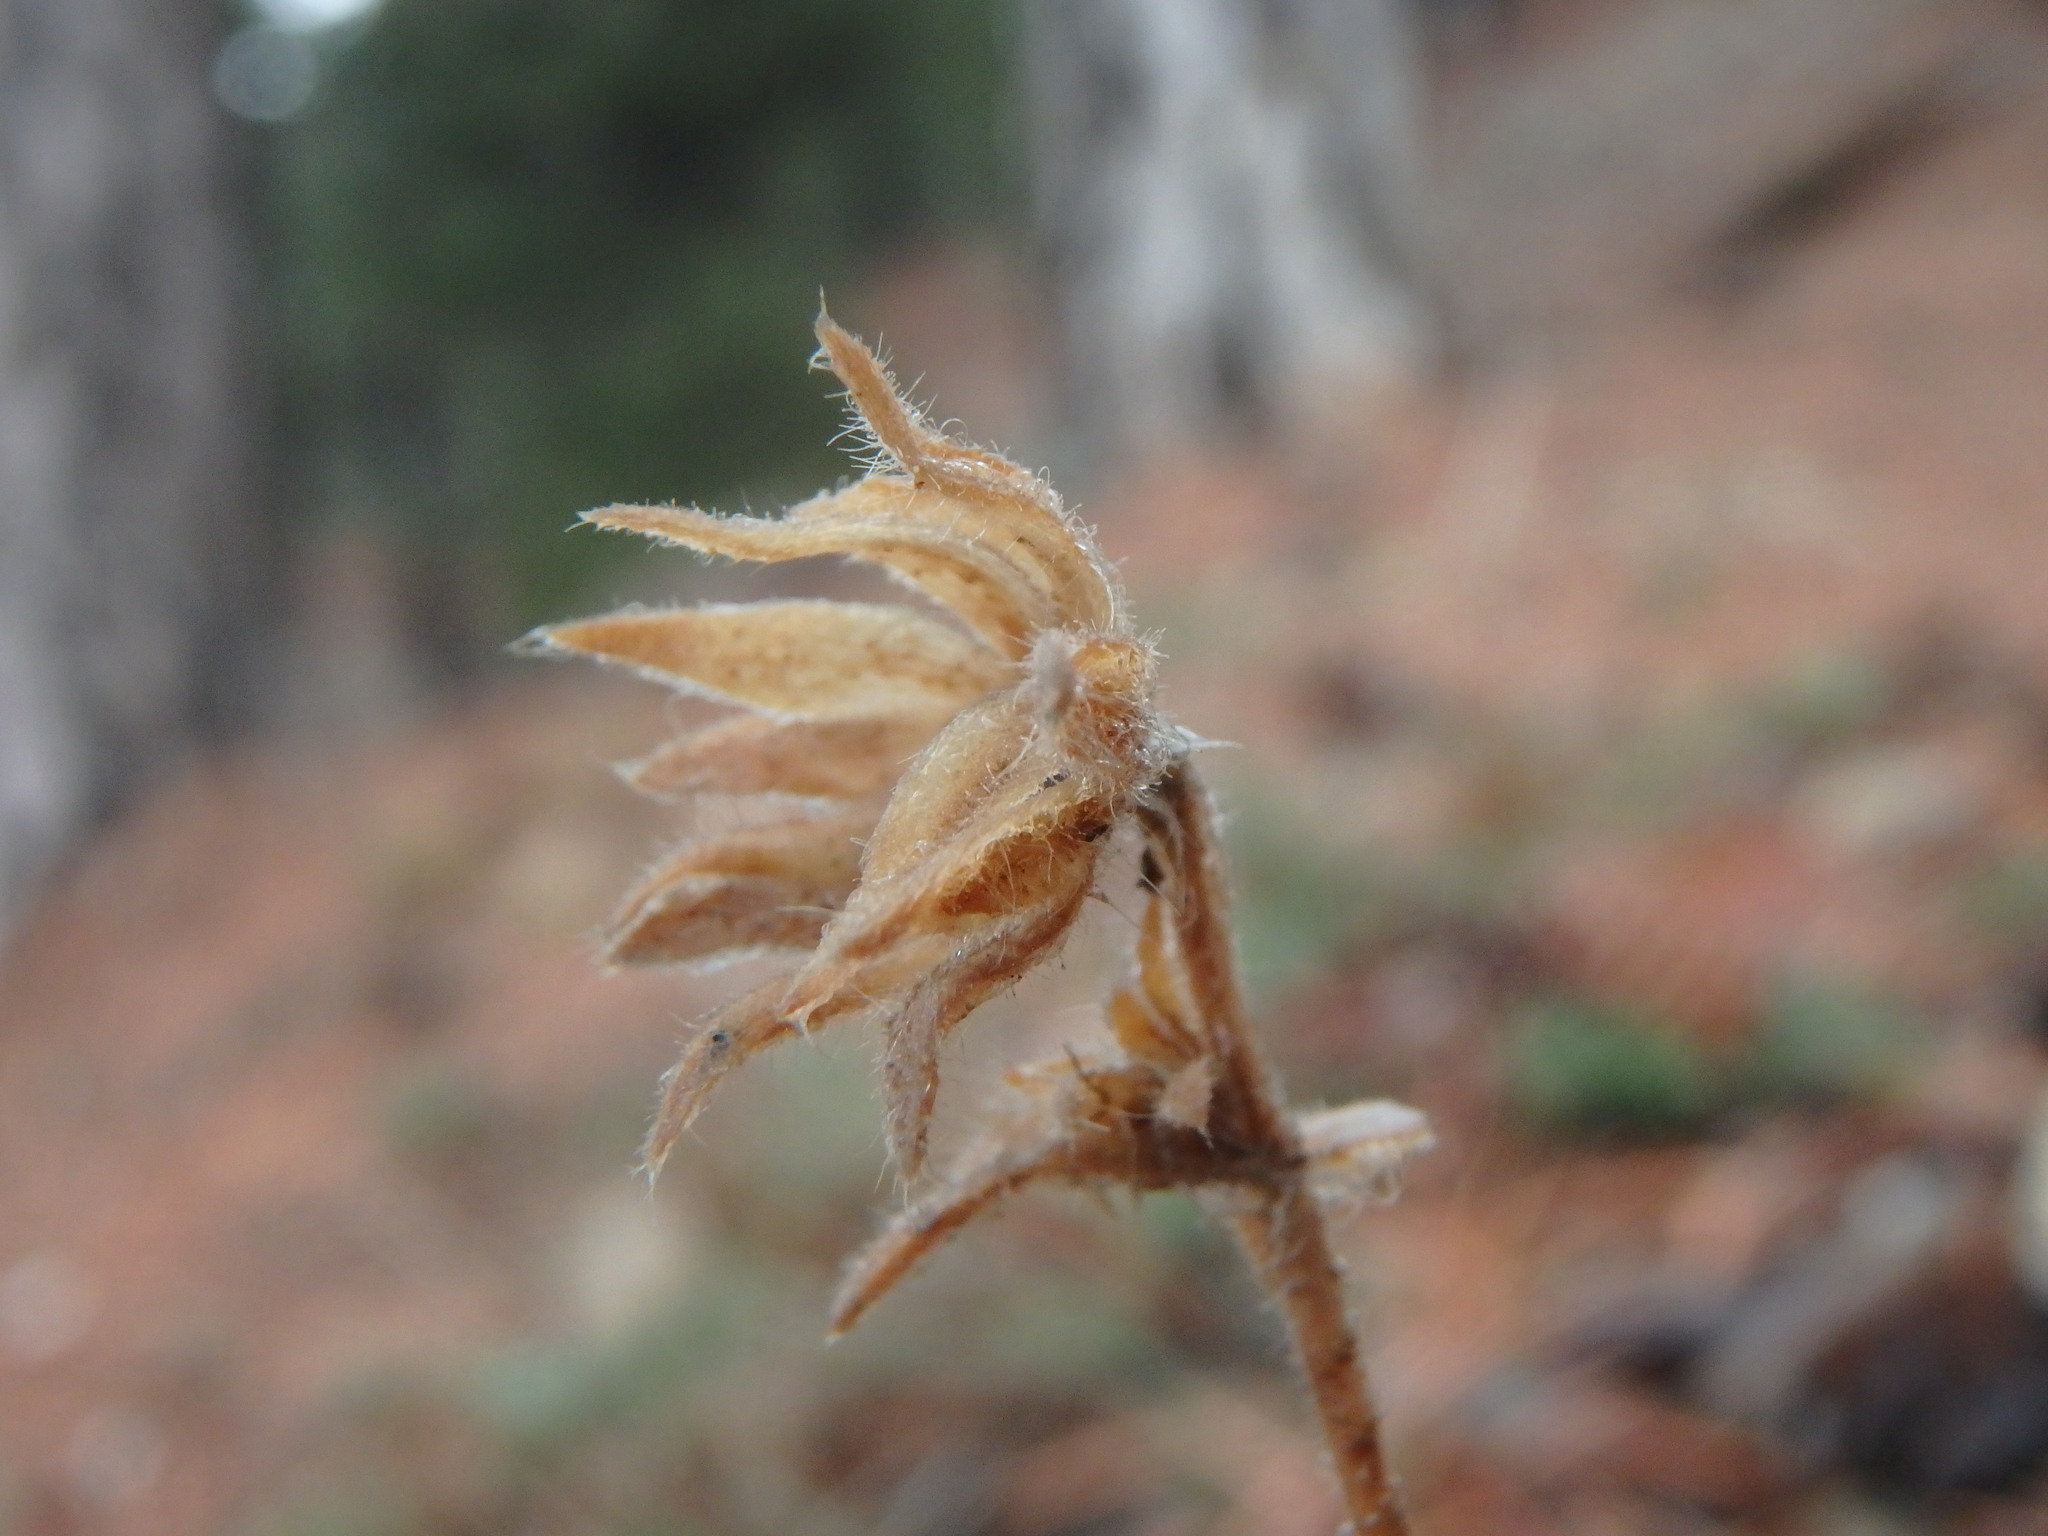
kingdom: Plantae
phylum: Tracheophyta
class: Magnoliopsida
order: Dipsacales
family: Caprifoliaceae
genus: Pterocephalus
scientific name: Pterocephalus multiflorus
